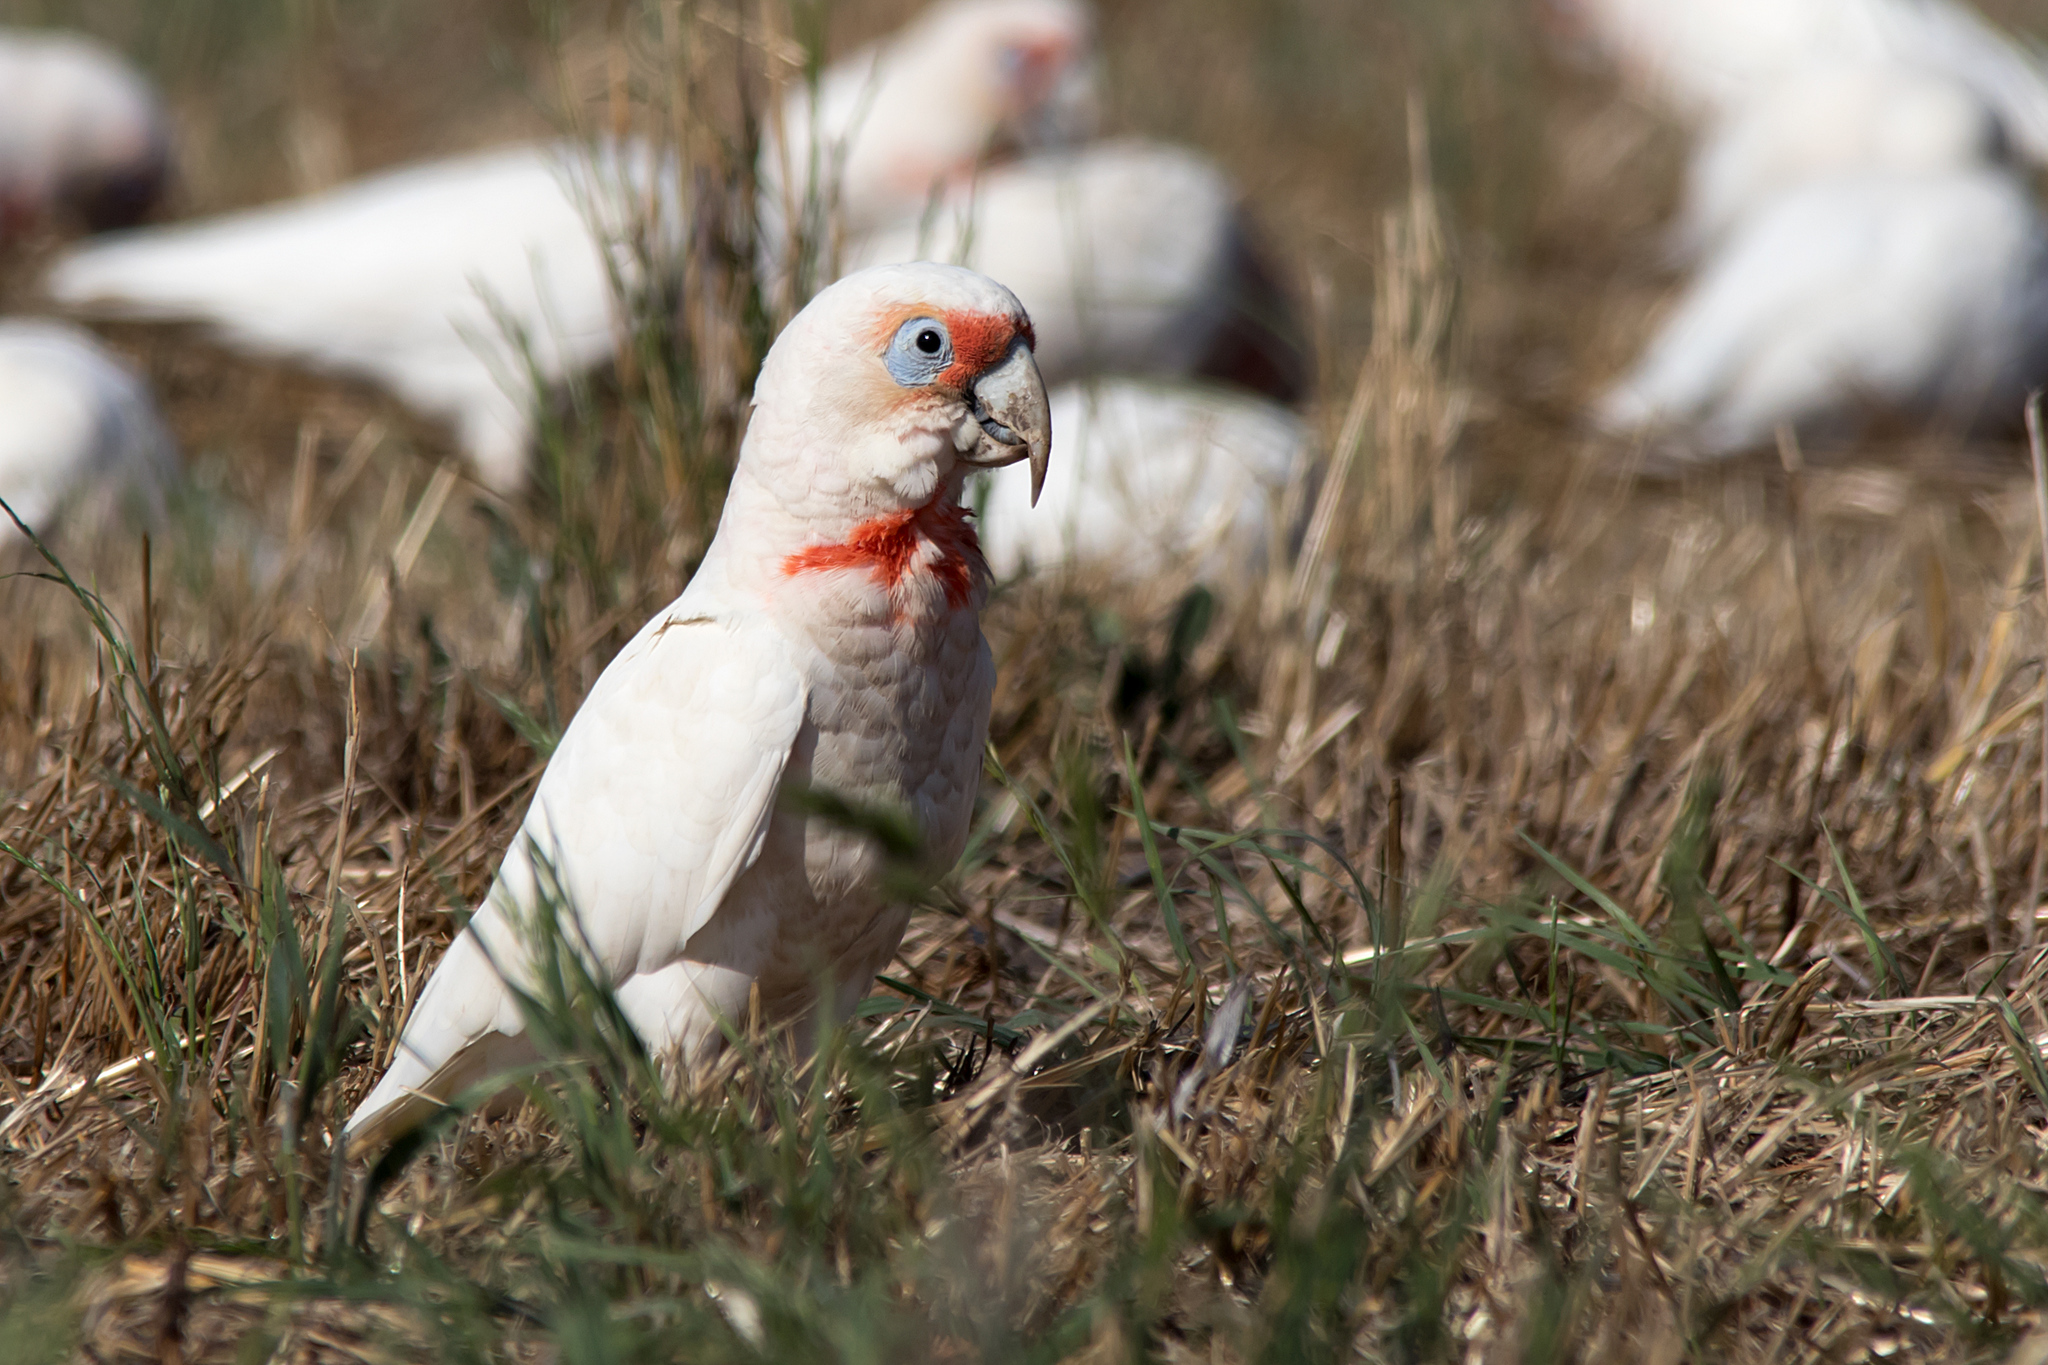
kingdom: Animalia
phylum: Chordata
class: Aves
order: Psittaciformes
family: Psittacidae
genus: Cacatua
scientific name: Cacatua tenuirostris
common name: Long-billed corella
